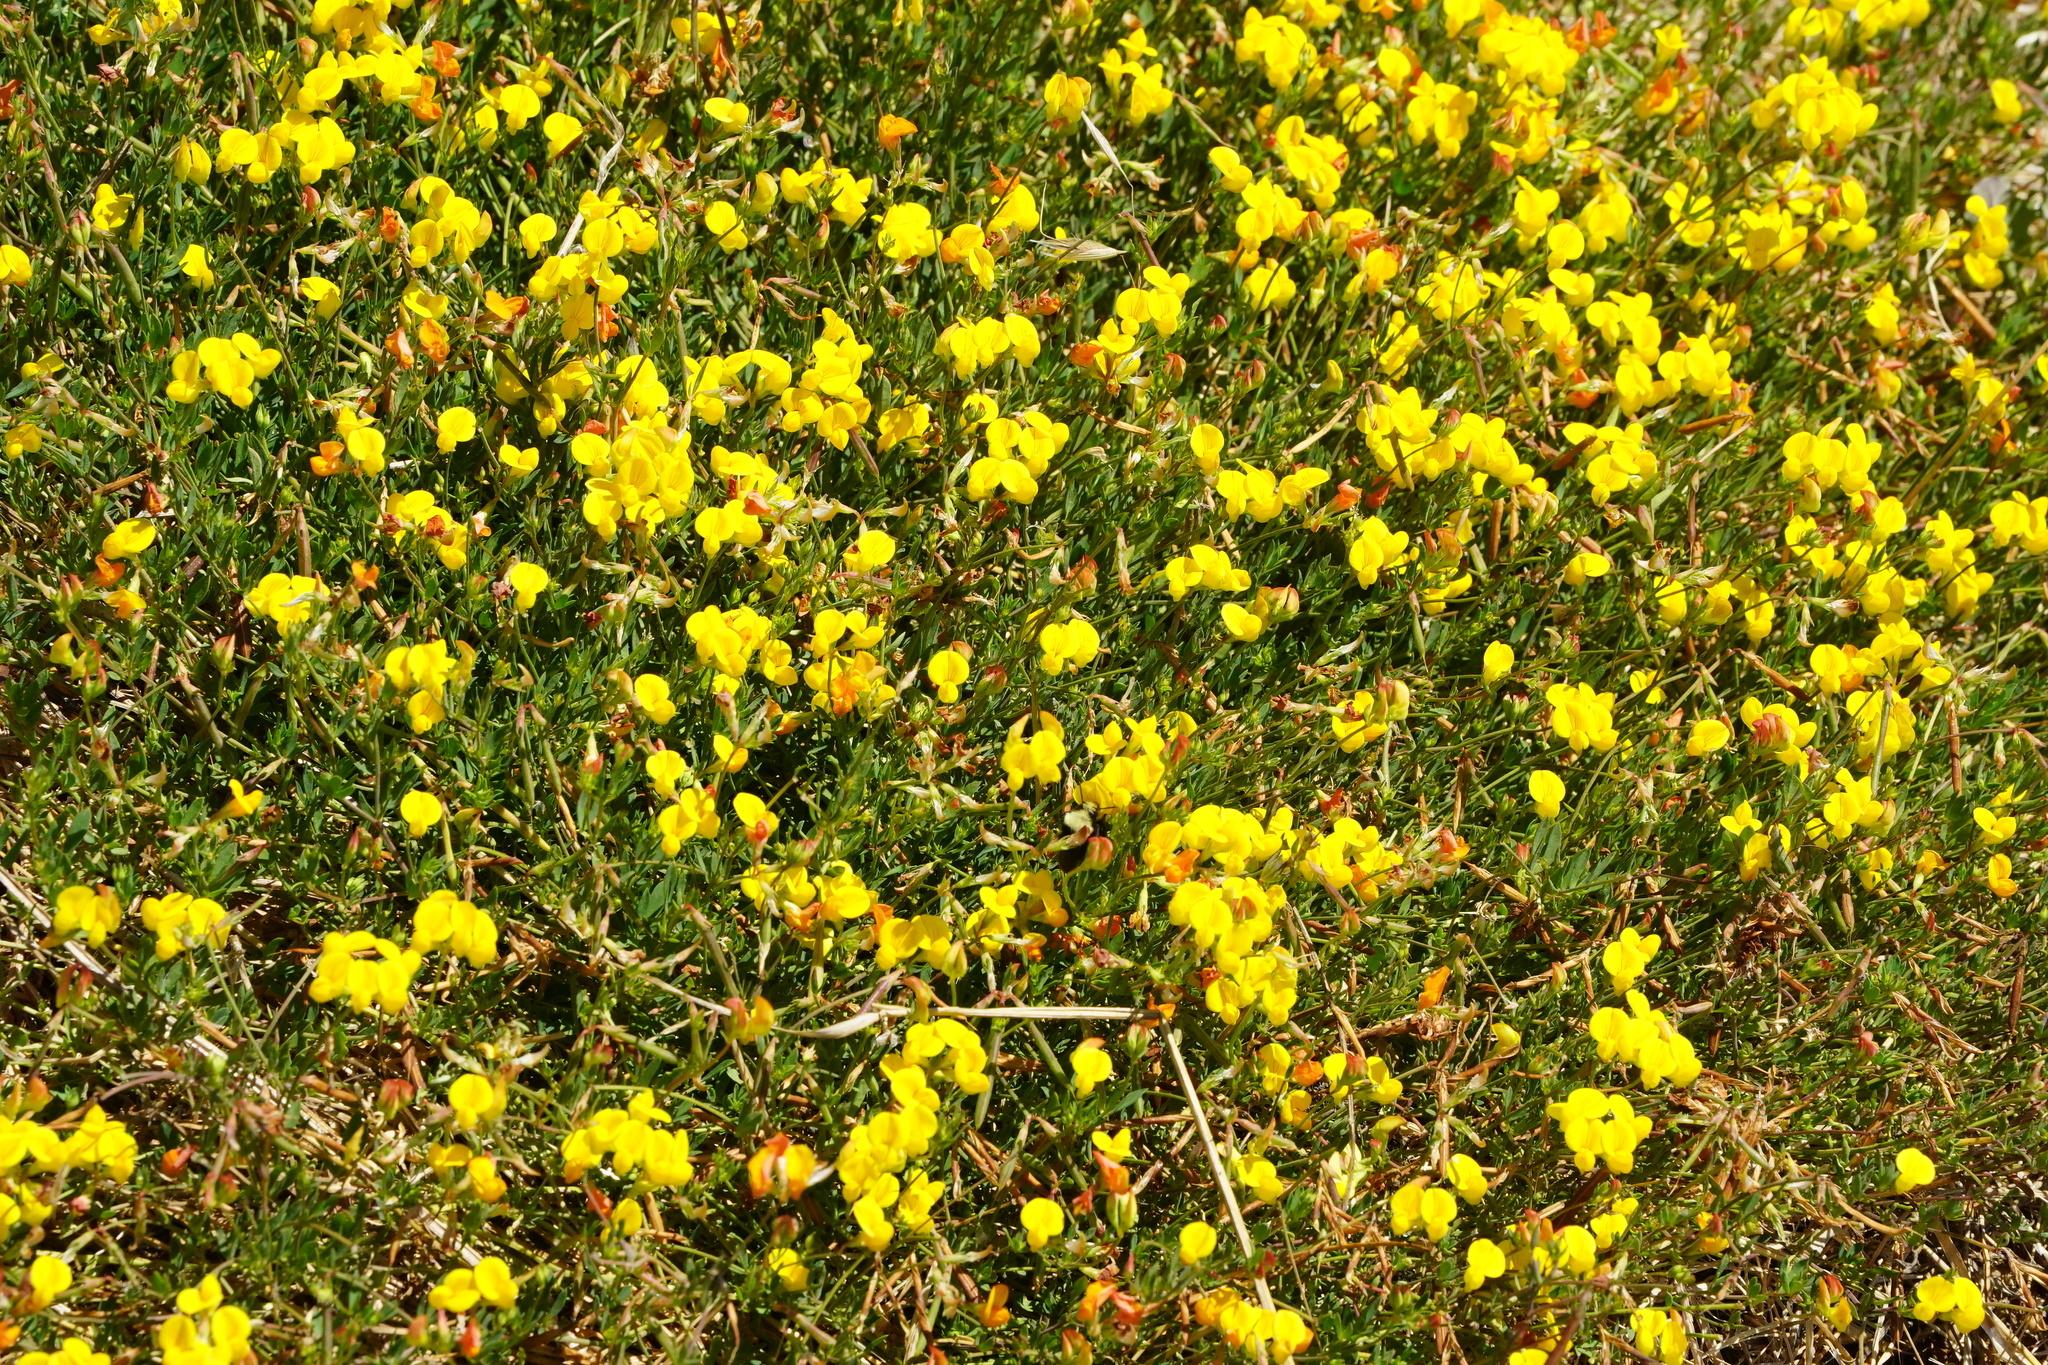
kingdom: Plantae
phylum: Tracheophyta
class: Magnoliopsida
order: Fabales
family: Fabaceae
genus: Lotus
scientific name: Lotus corniculatus
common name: Common bird's-foot-trefoil
